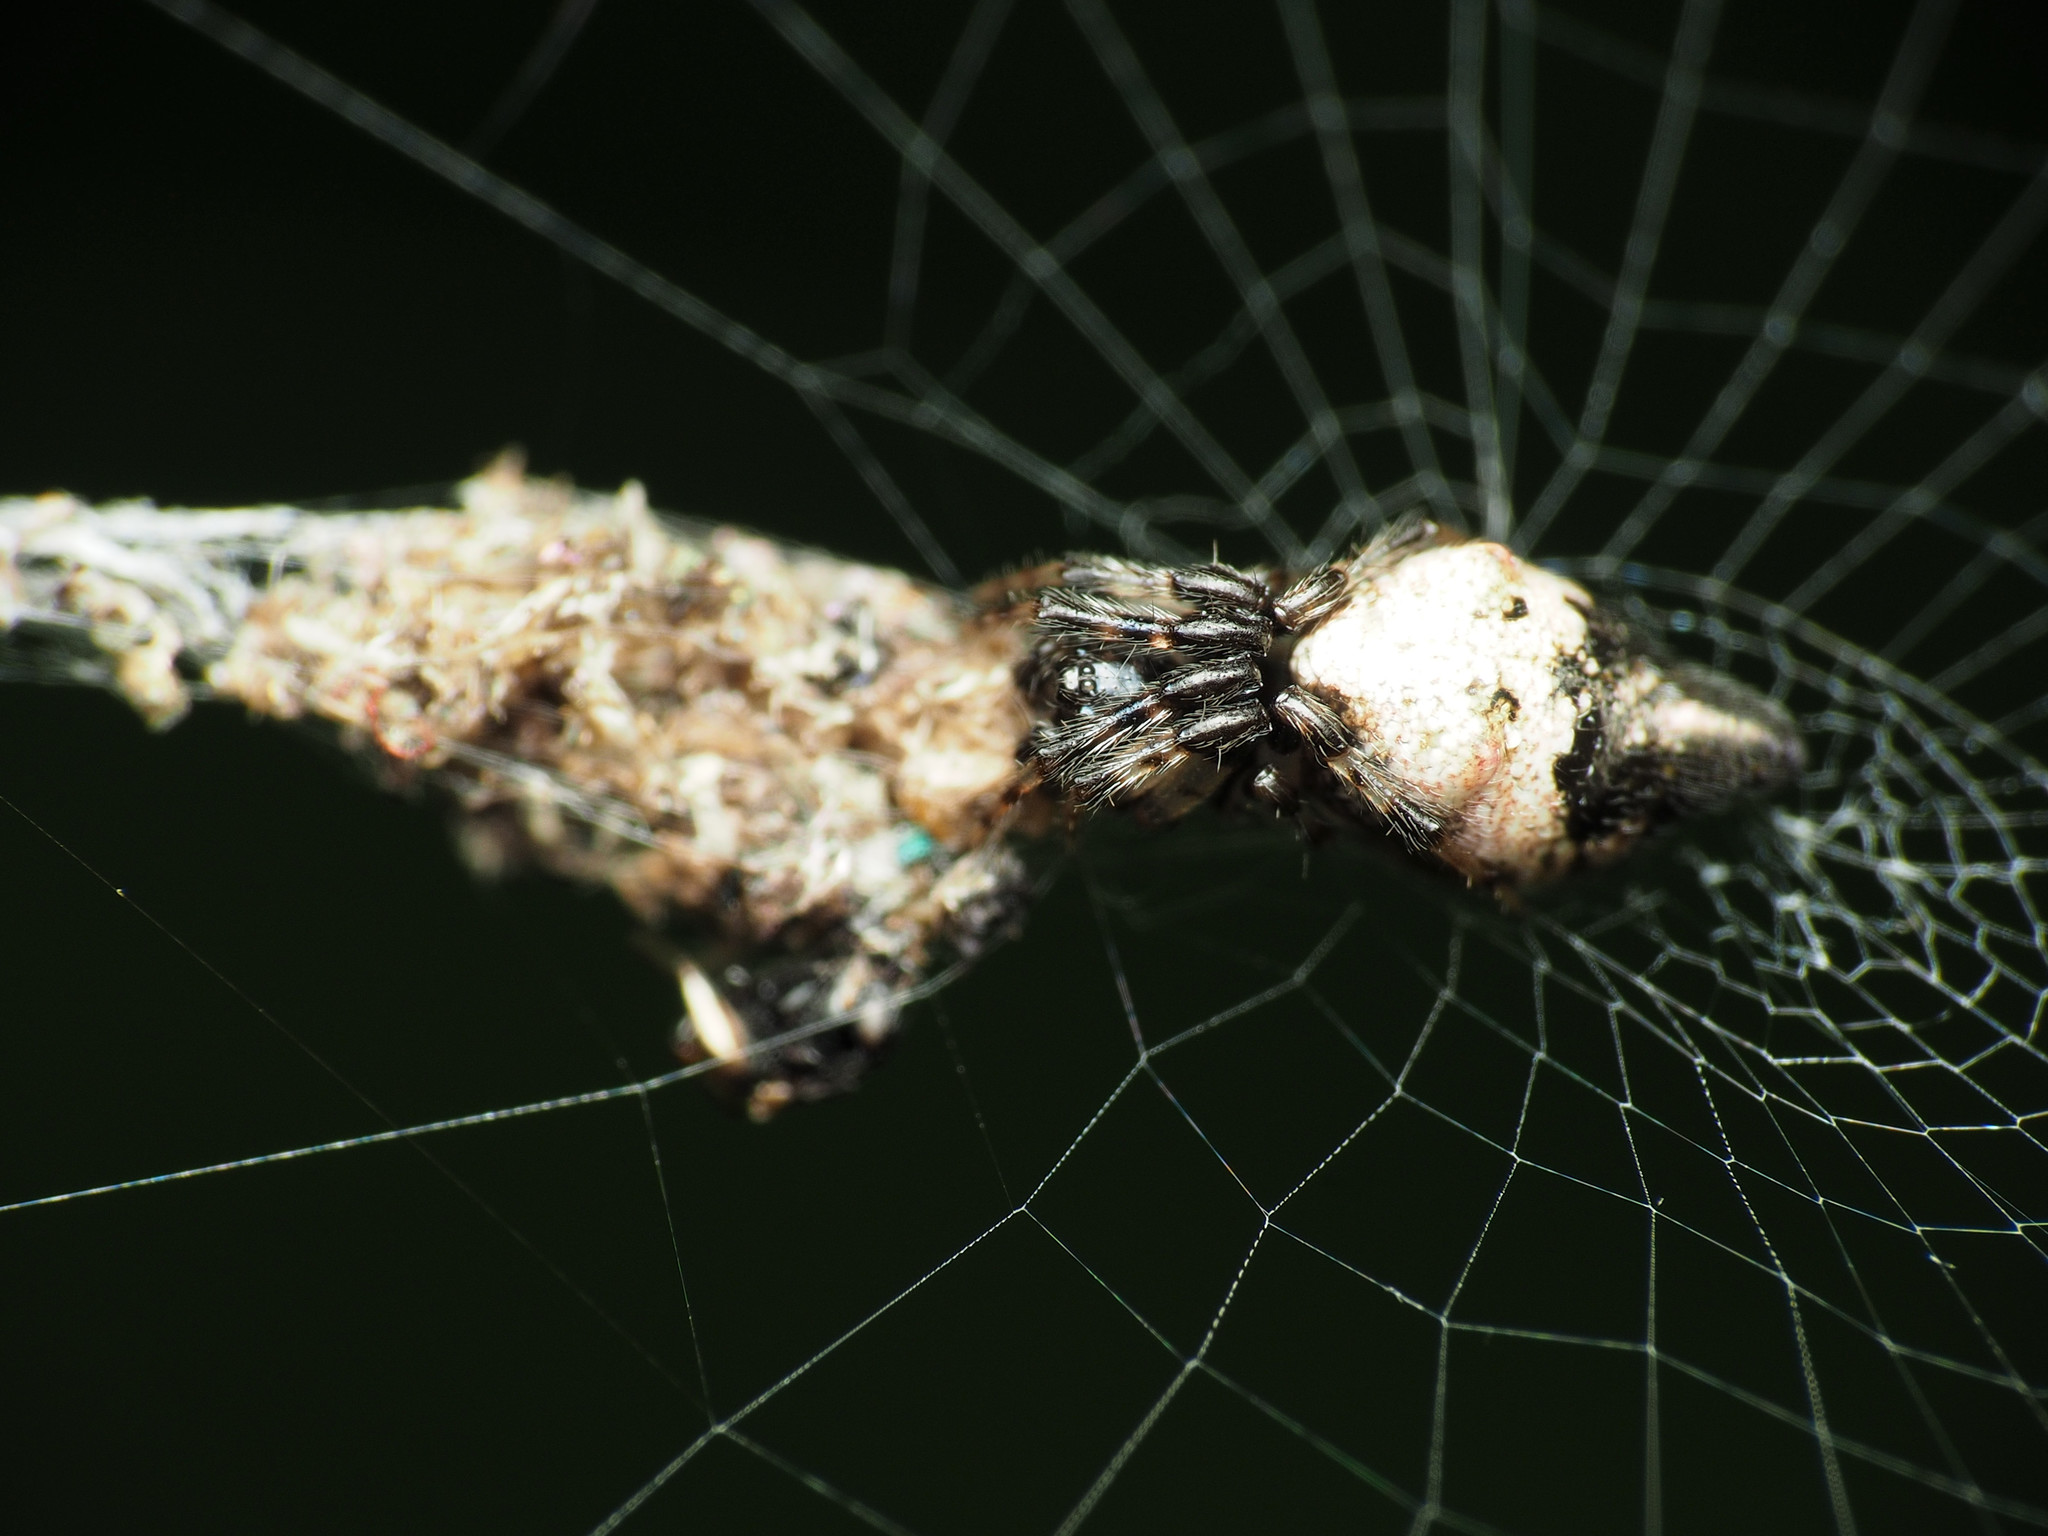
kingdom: Animalia
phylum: Arthropoda
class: Arachnida
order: Araneae
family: Araneidae
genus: Cyclosa
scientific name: Cyclosa turbinata
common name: Orb weavers
